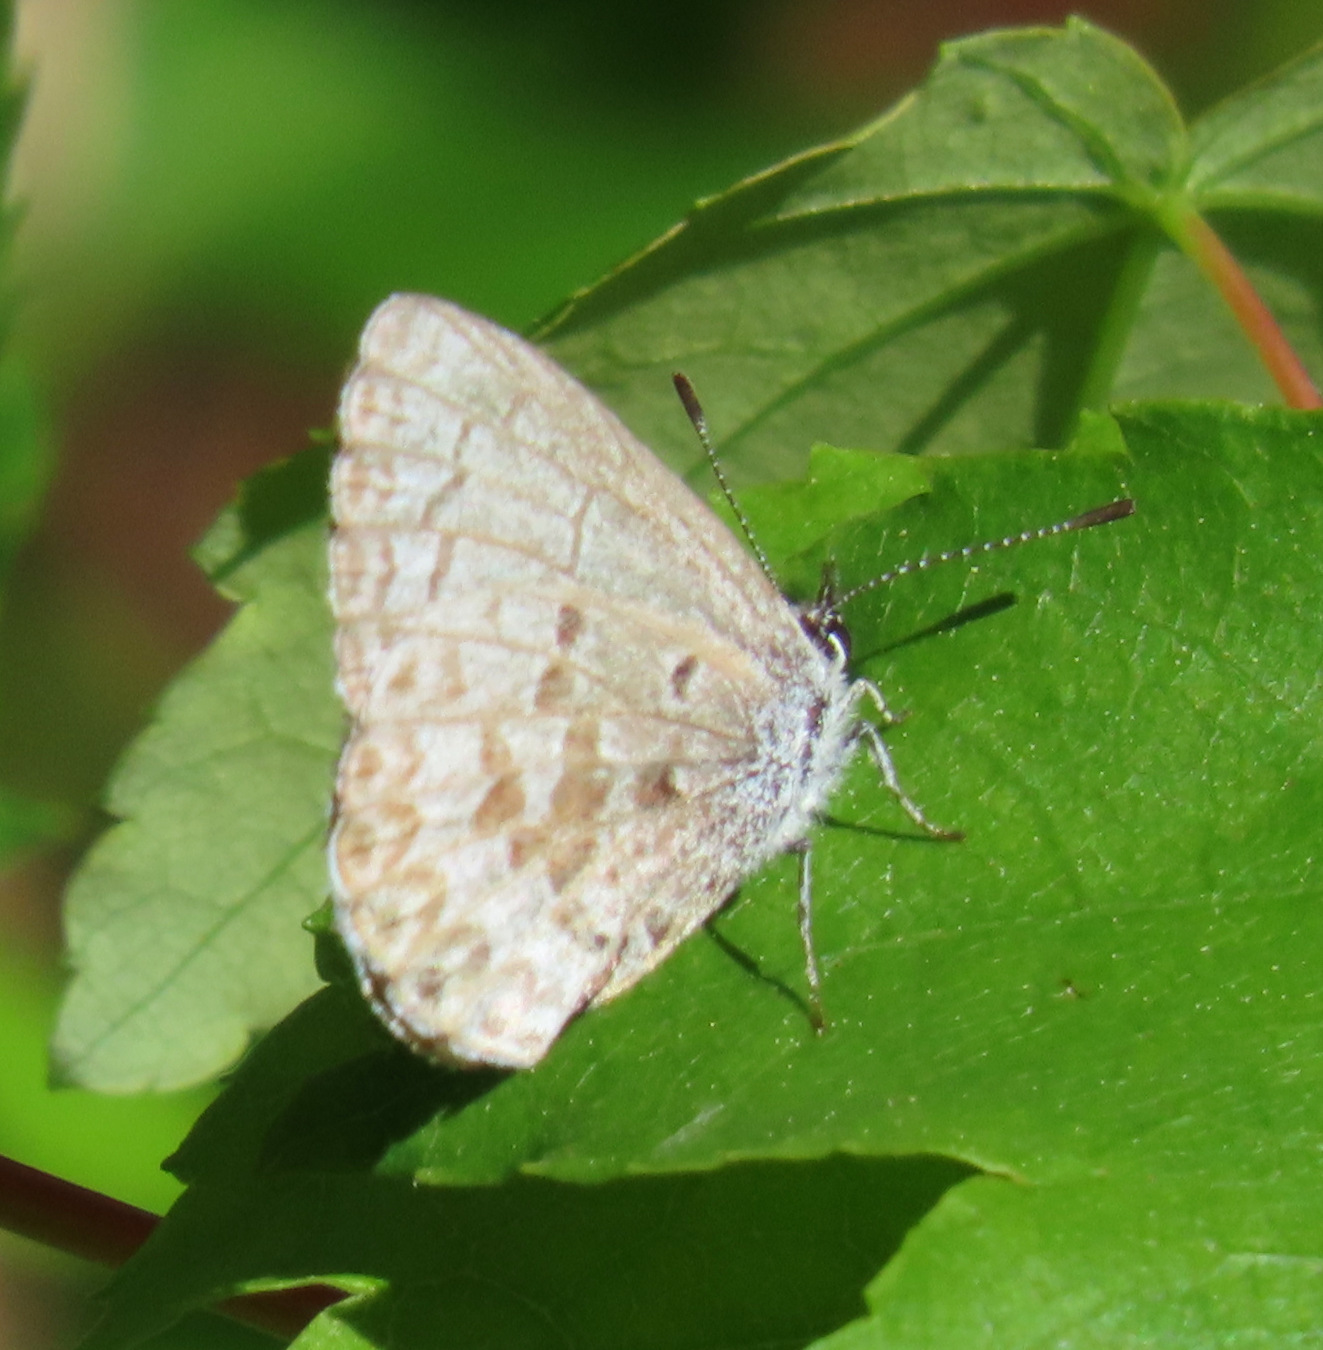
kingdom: Animalia
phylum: Arthropoda
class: Insecta
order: Lepidoptera
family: Lycaenidae
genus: Celastrina
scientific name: Celastrina lucia
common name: Lucia azure
